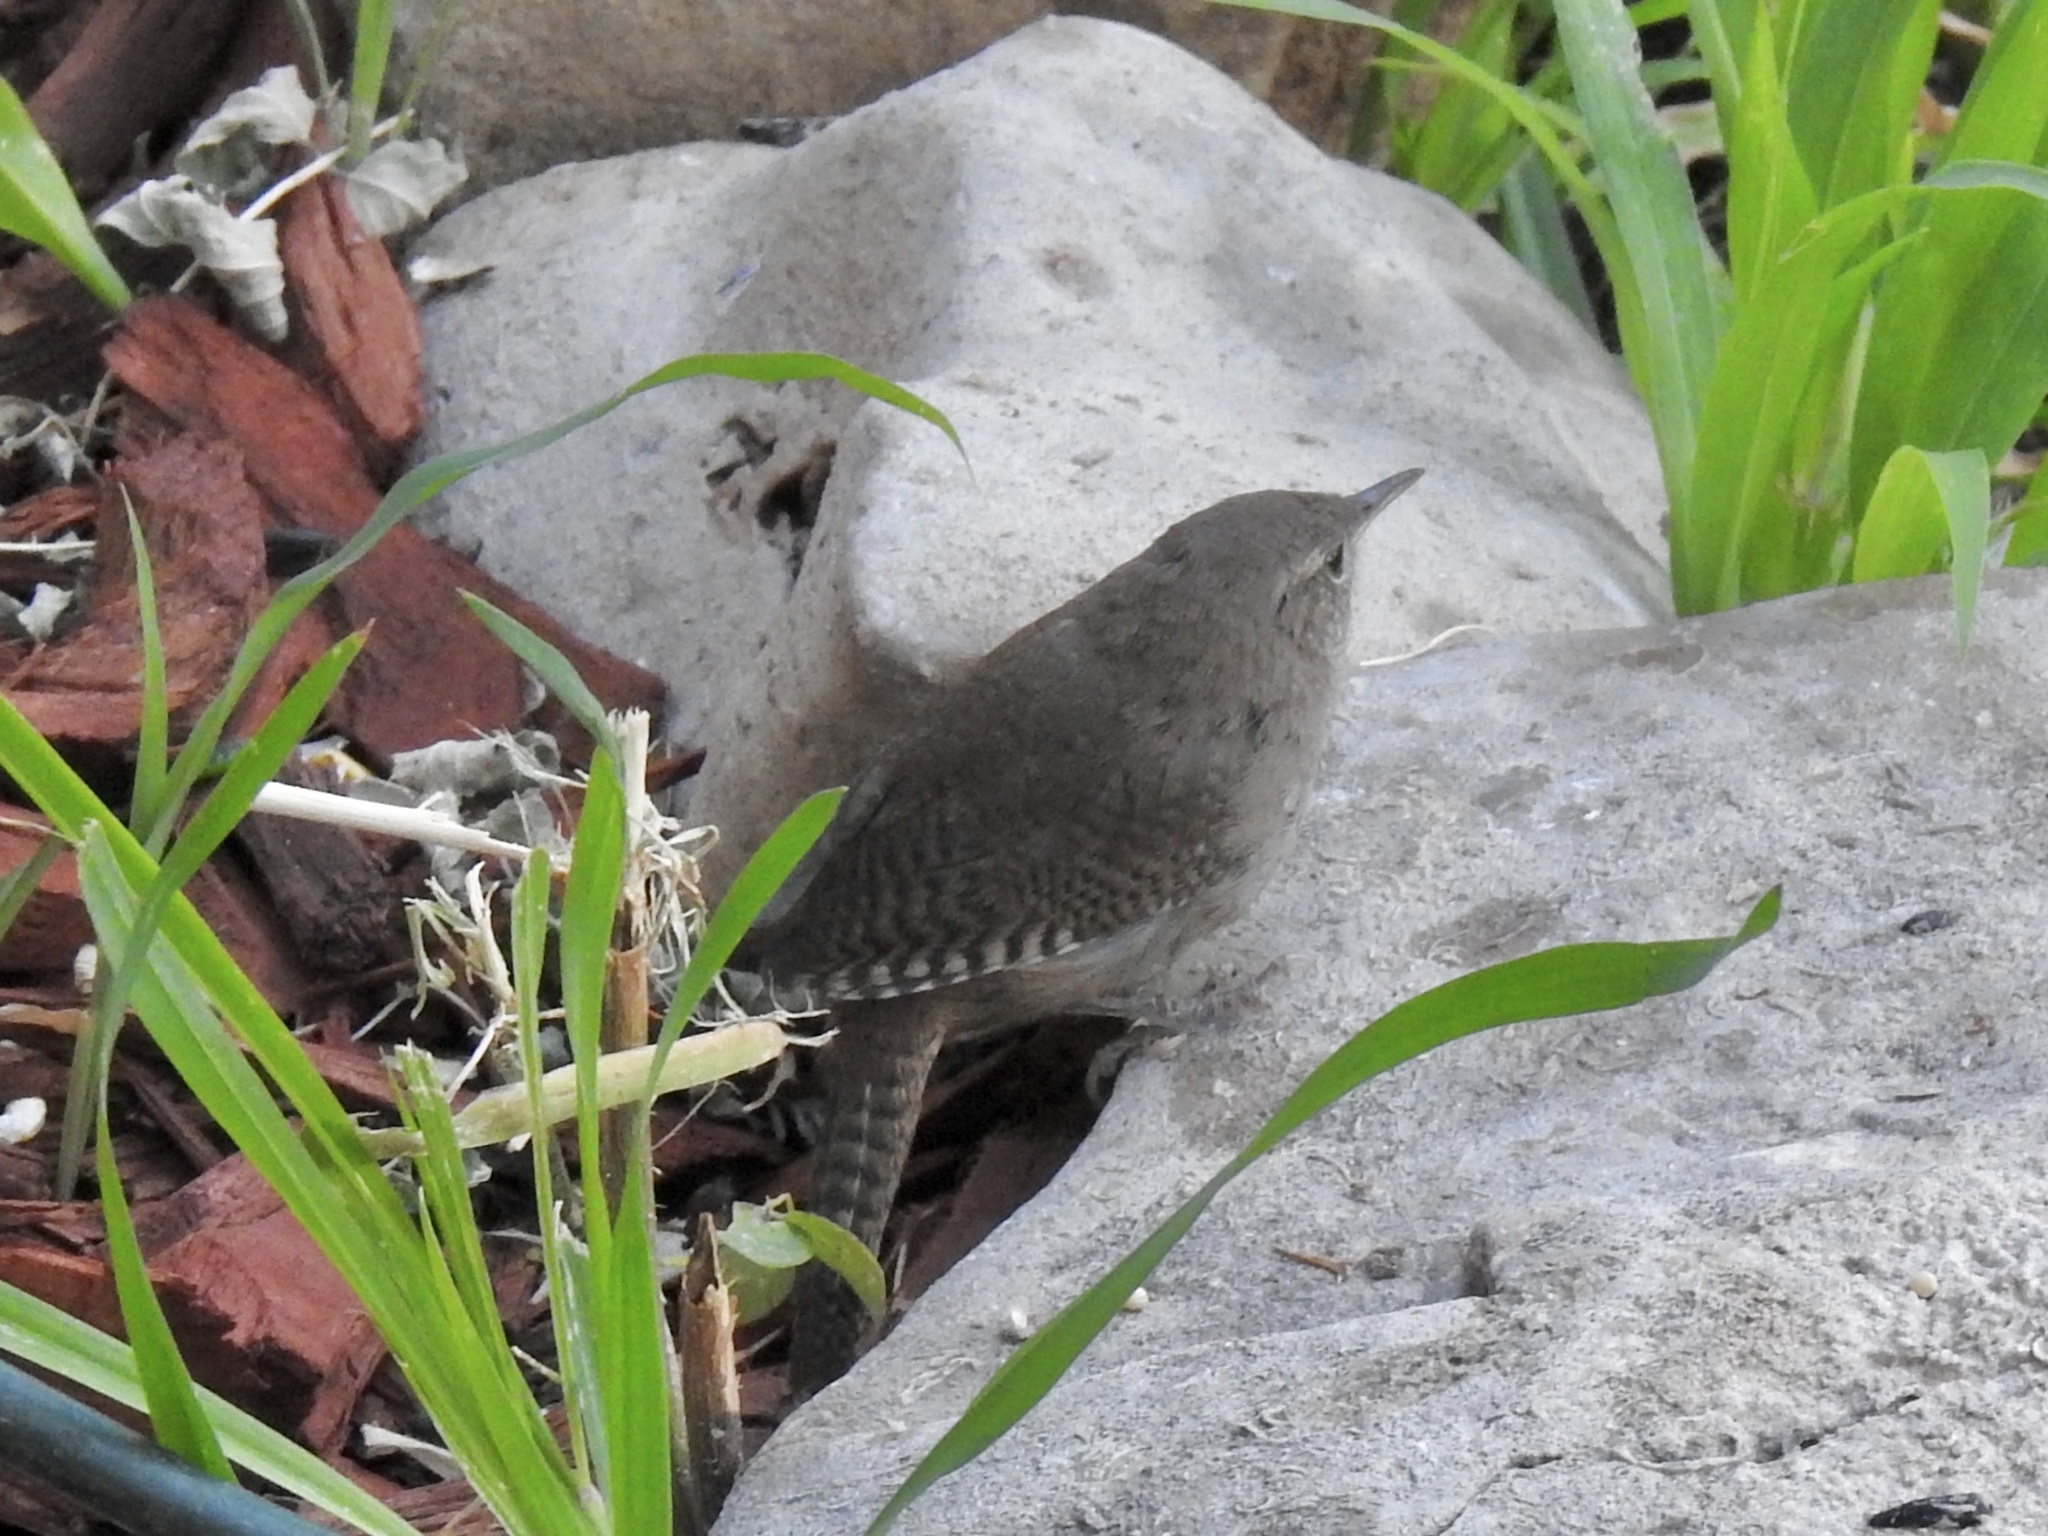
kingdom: Animalia
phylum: Chordata
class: Aves
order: Passeriformes
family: Troglodytidae
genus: Troglodytes
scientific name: Troglodytes aedon
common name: House wren
